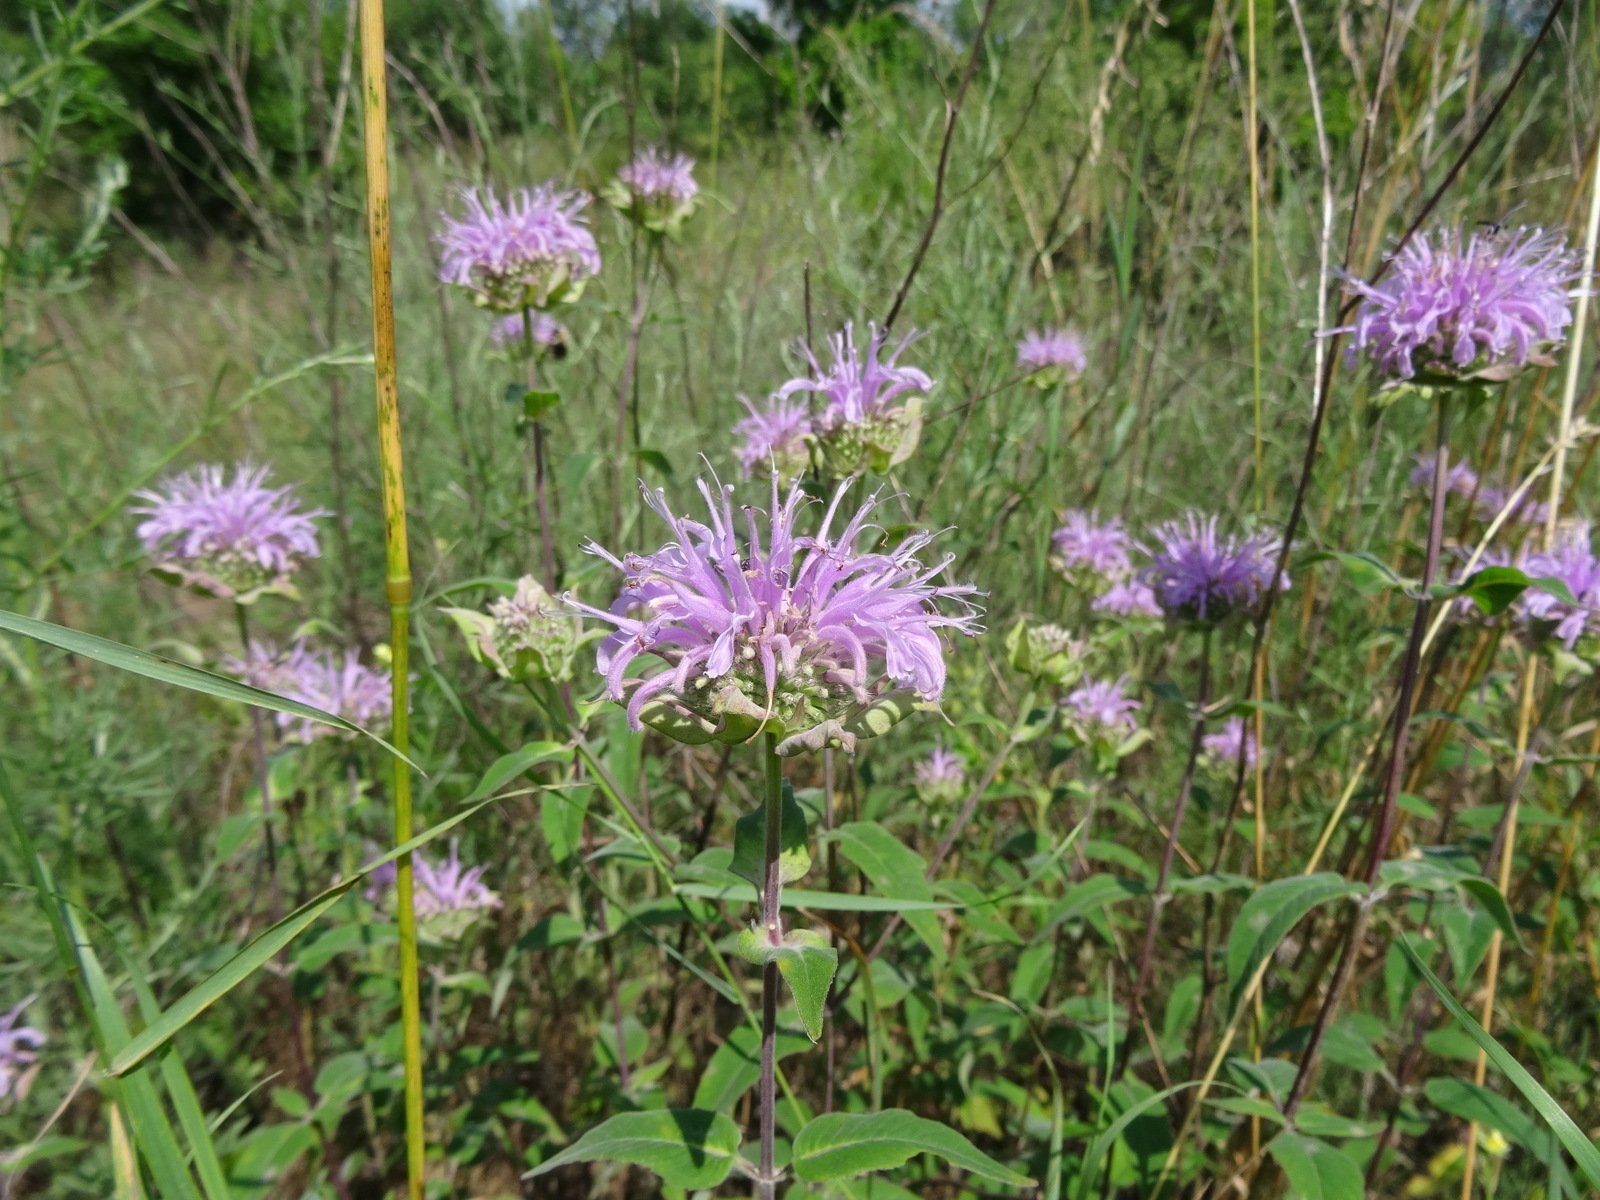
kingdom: Plantae
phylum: Tracheophyta
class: Magnoliopsida
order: Lamiales
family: Lamiaceae
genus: Monarda
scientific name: Monarda fistulosa
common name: Purple beebalm
